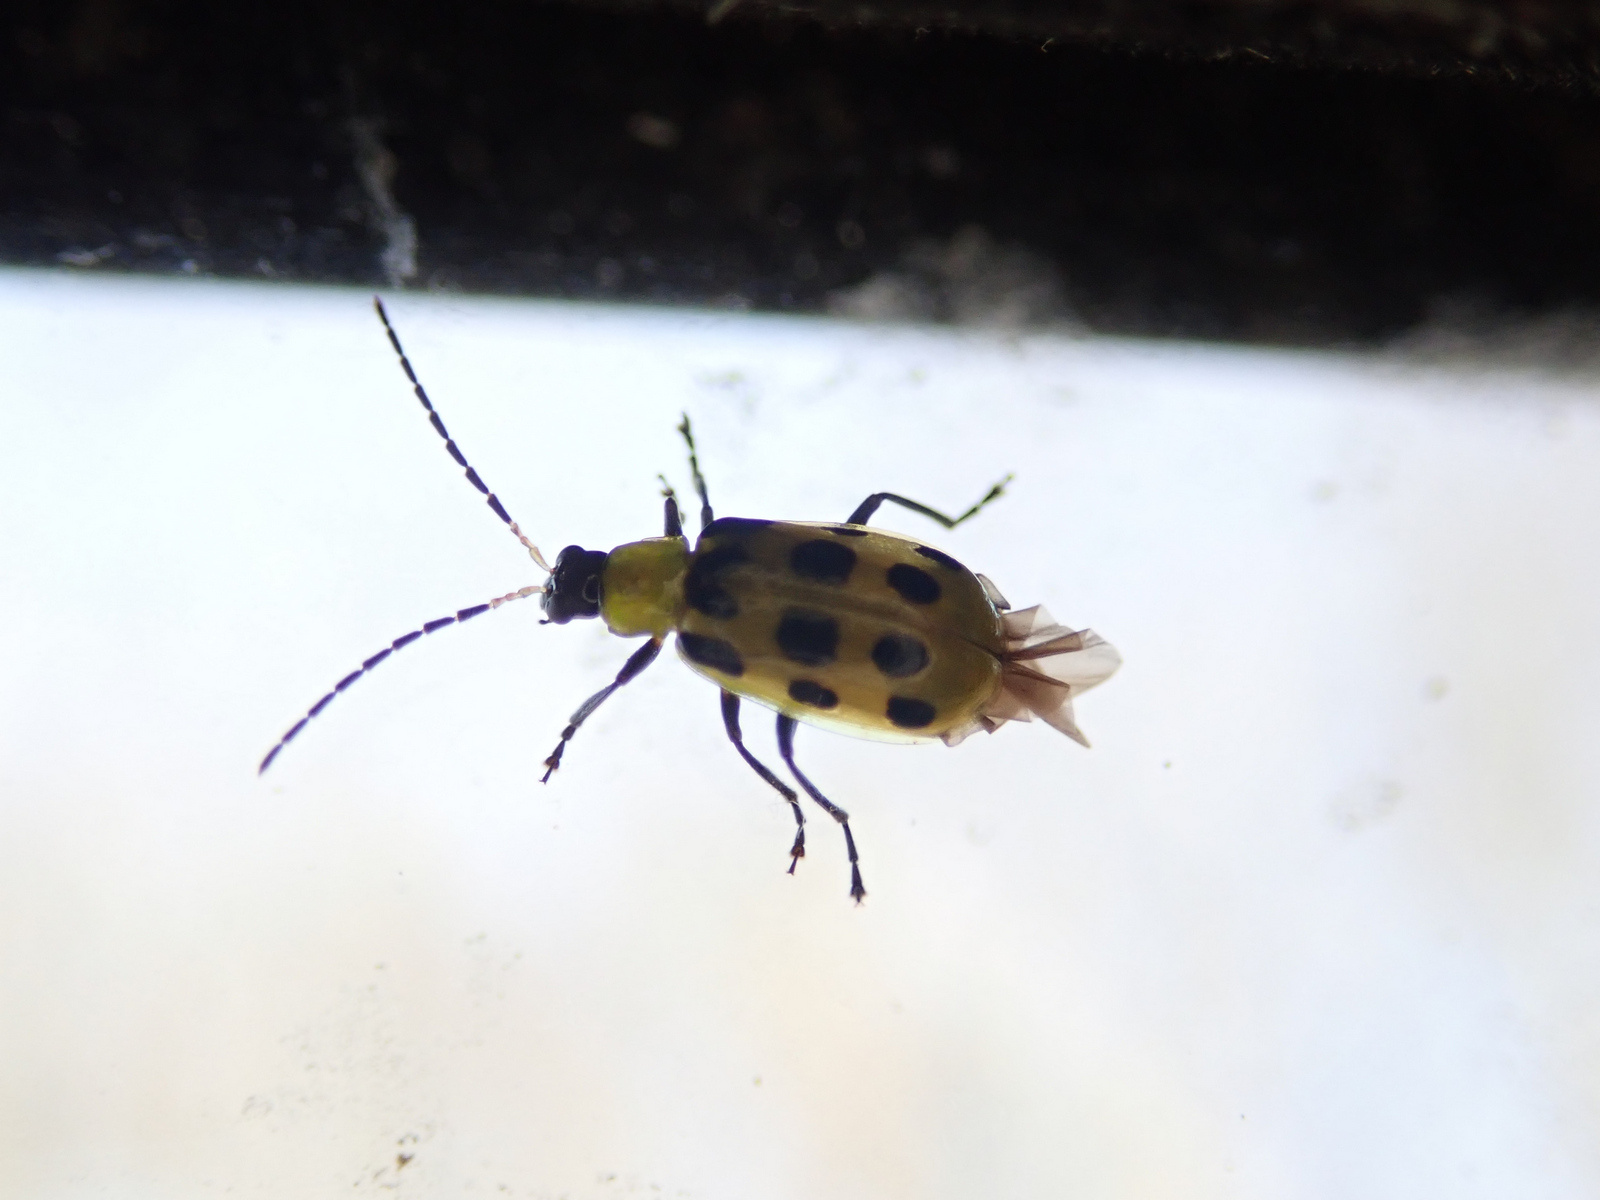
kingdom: Animalia
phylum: Arthropoda
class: Insecta
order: Coleoptera
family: Chrysomelidae
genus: Diabrotica
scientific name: Diabrotica undecimpunctata
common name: Spotted cucumber beetle
